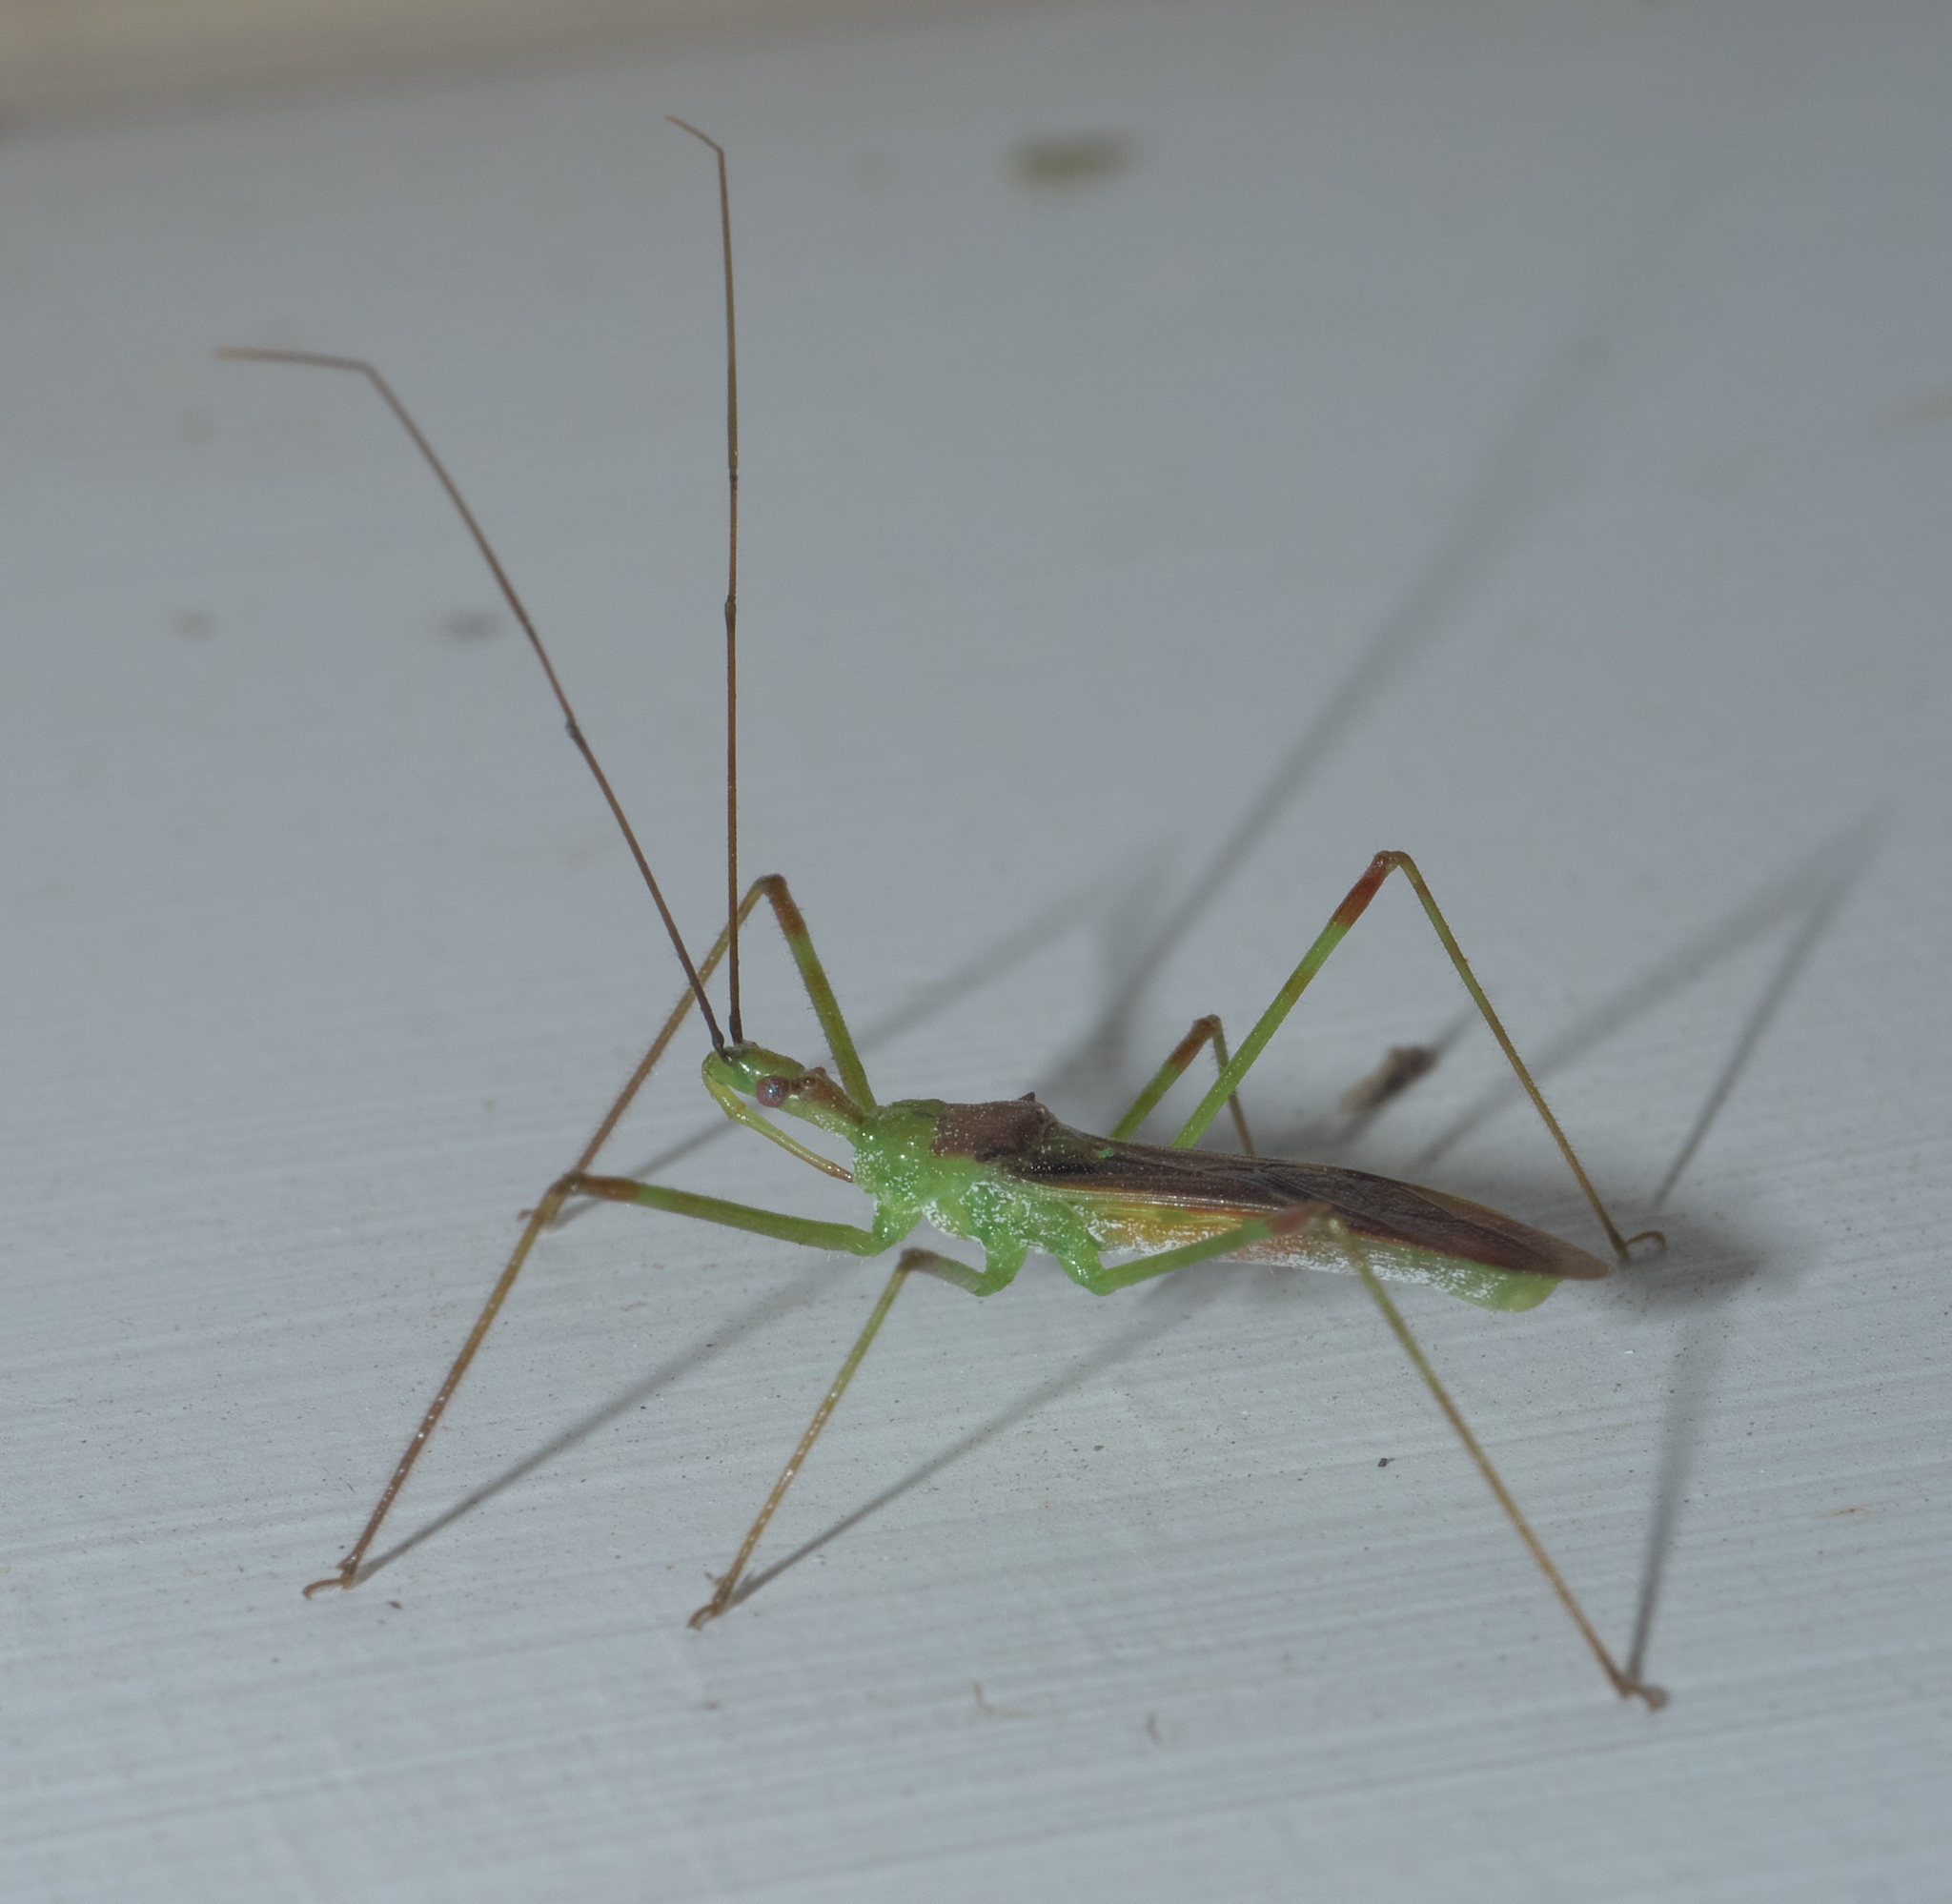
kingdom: Animalia
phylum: Arthropoda
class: Insecta
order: Hemiptera
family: Reduviidae
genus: Zelus
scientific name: Zelus luridus
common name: Pale green assassin bug
